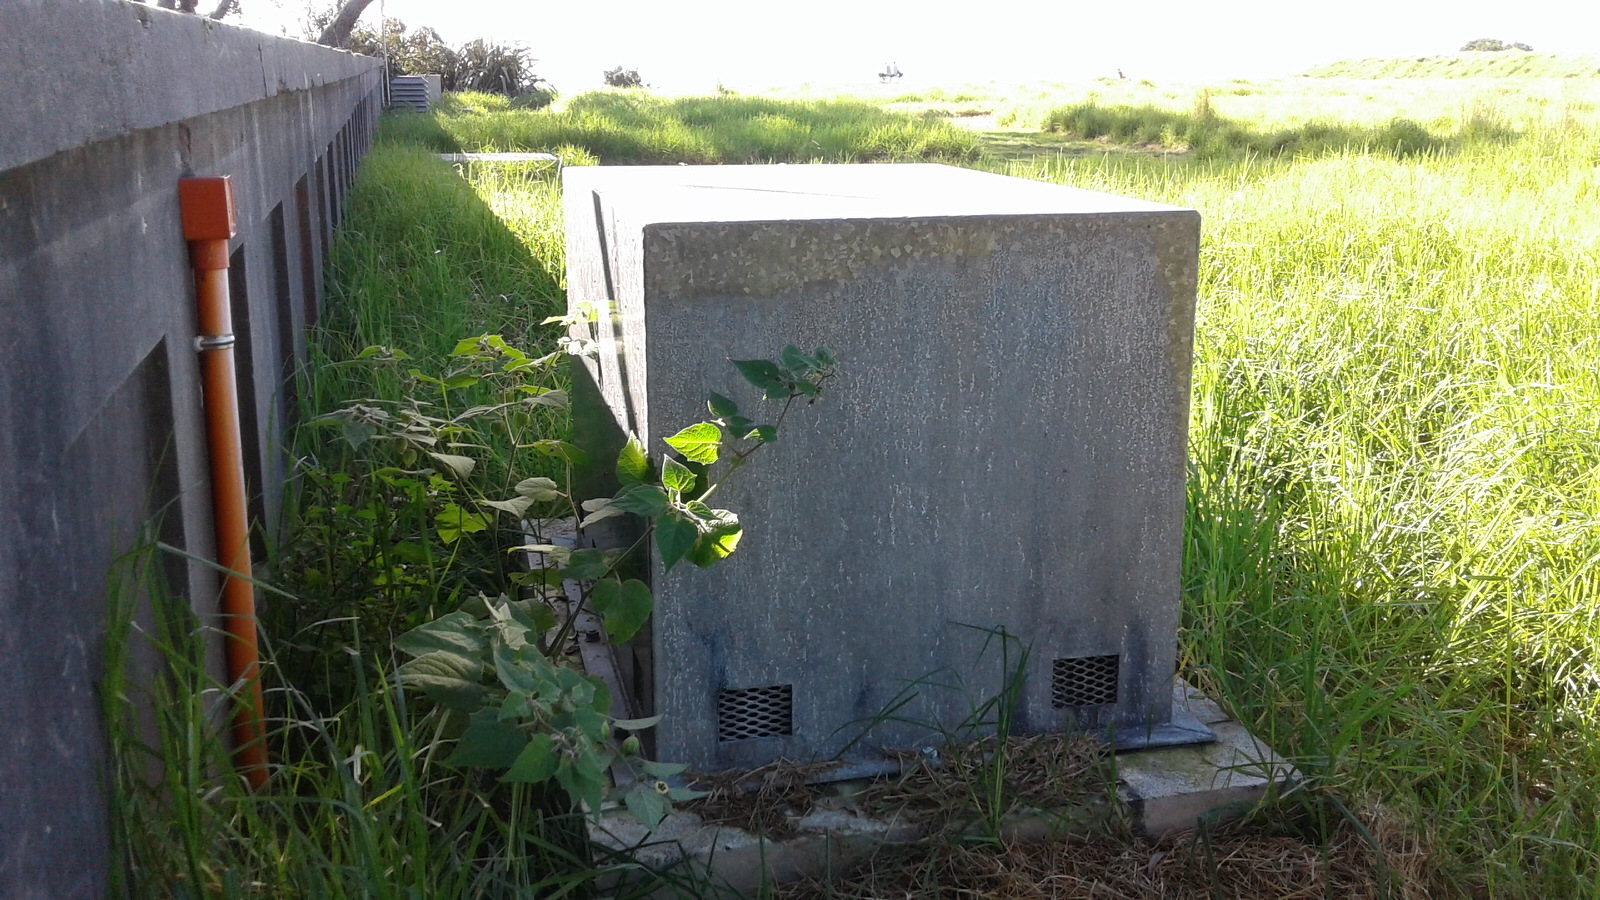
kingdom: Plantae
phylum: Tracheophyta
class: Magnoliopsida
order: Solanales
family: Solanaceae
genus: Physalis
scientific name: Physalis peruviana
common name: Cape-gooseberry
